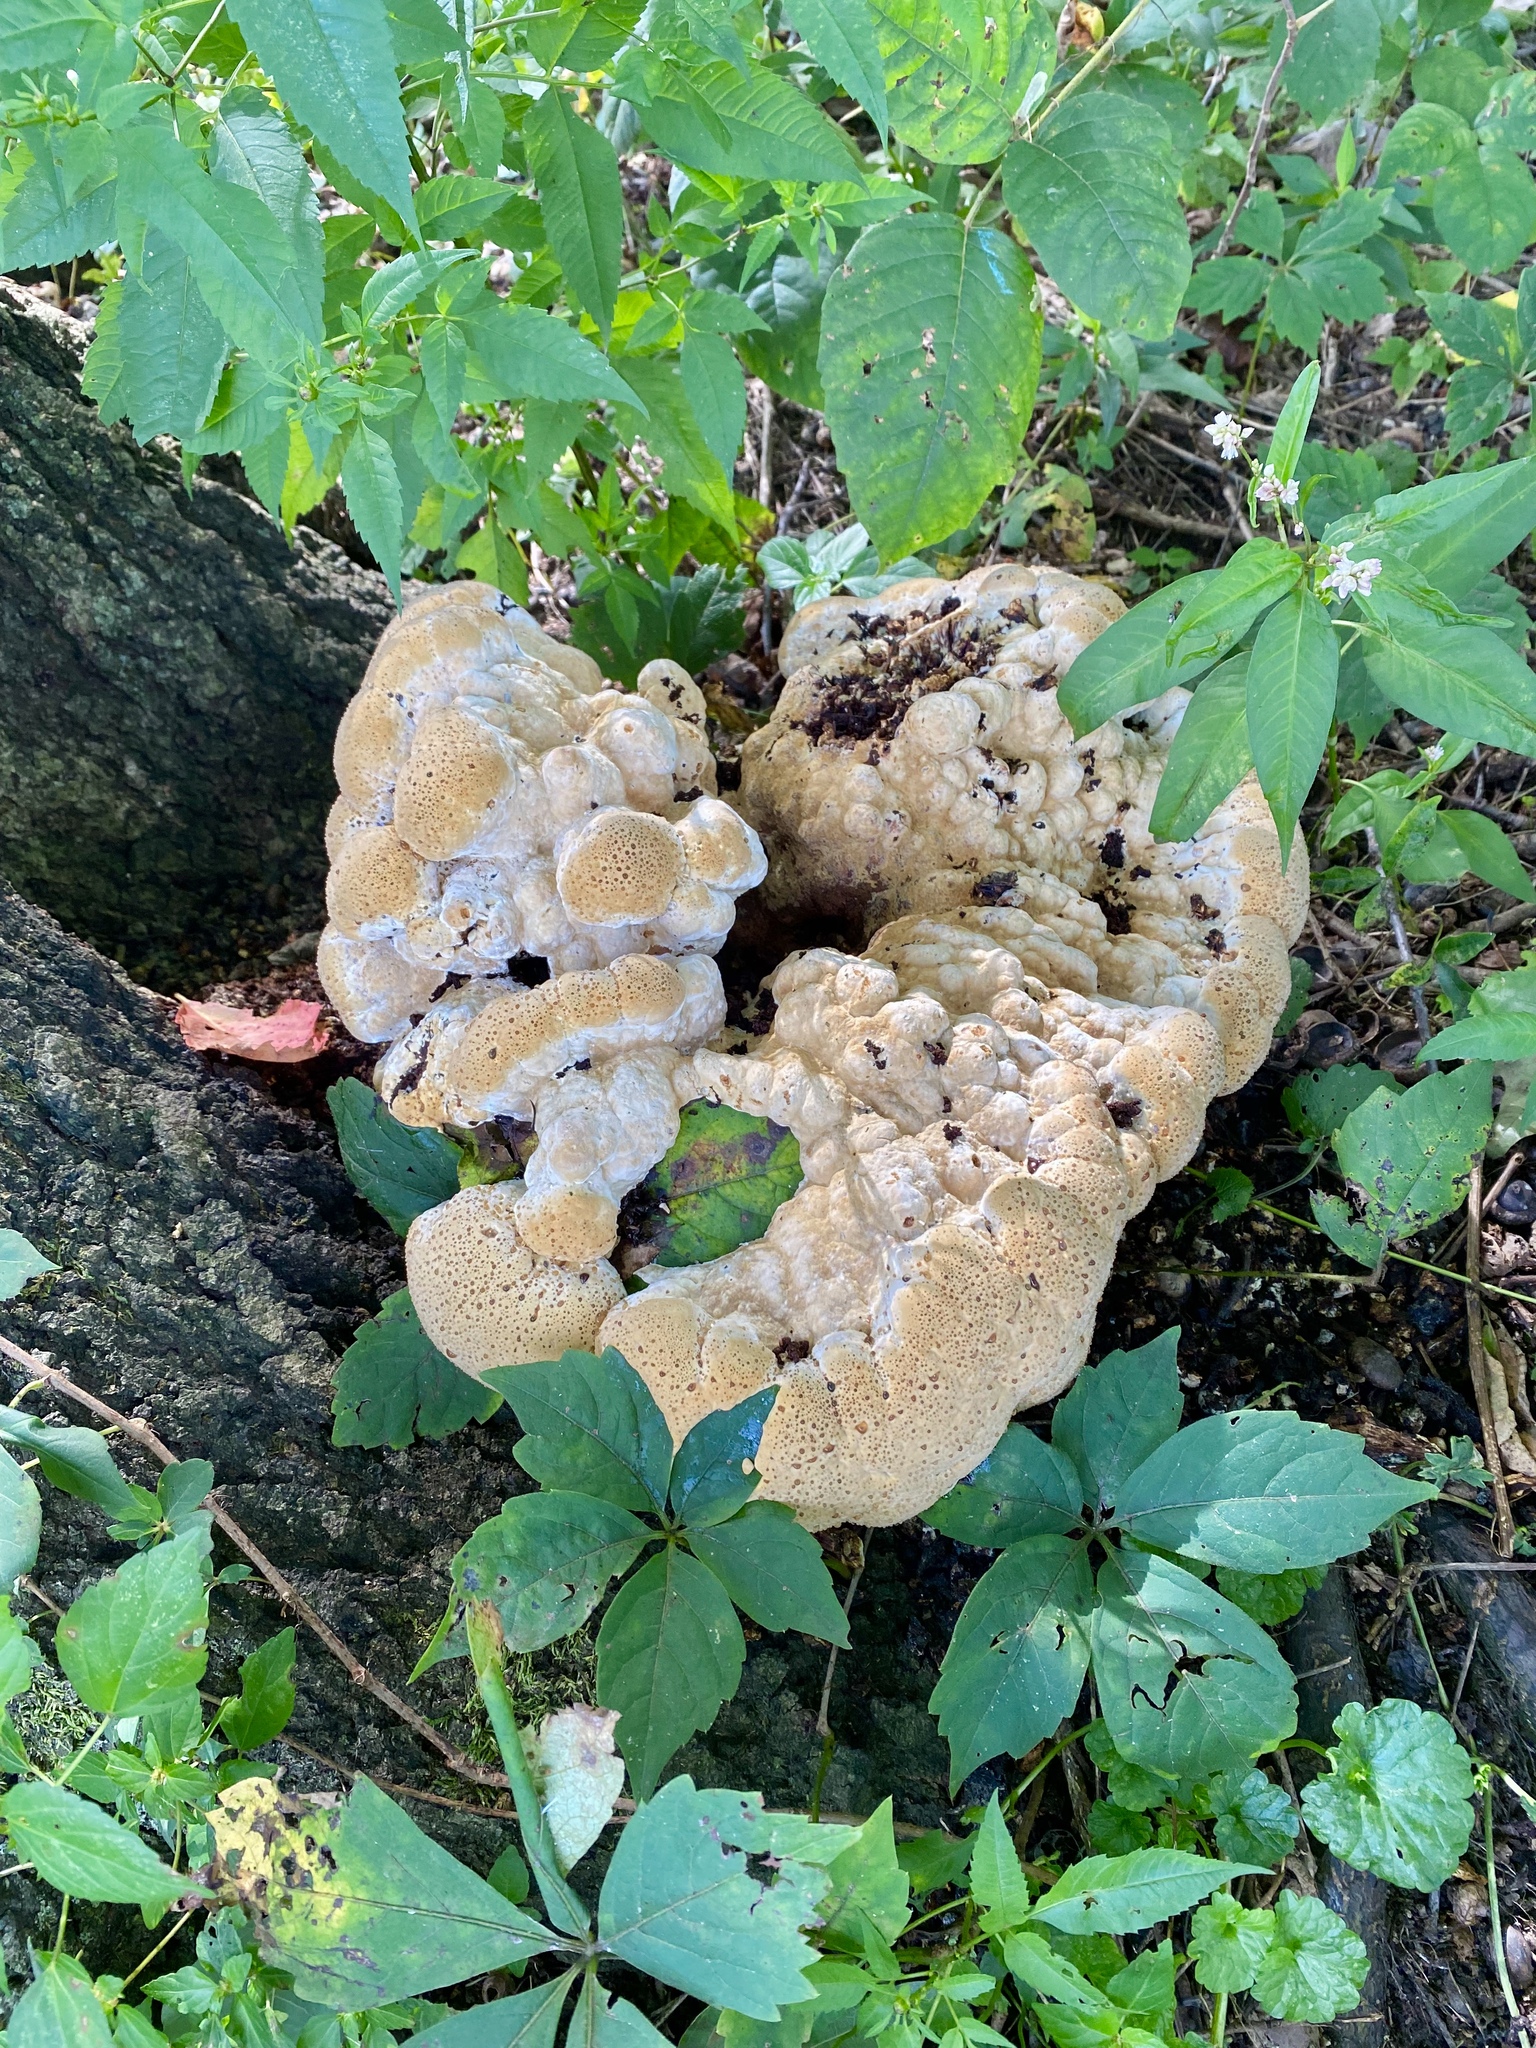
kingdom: Fungi
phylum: Basidiomycota
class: Agaricomycetes
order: Hymenochaetales
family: Hymenochaetaceae
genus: Pseudoinonotus
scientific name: Pseudoinonotus dryadeus
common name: Oak bracket
